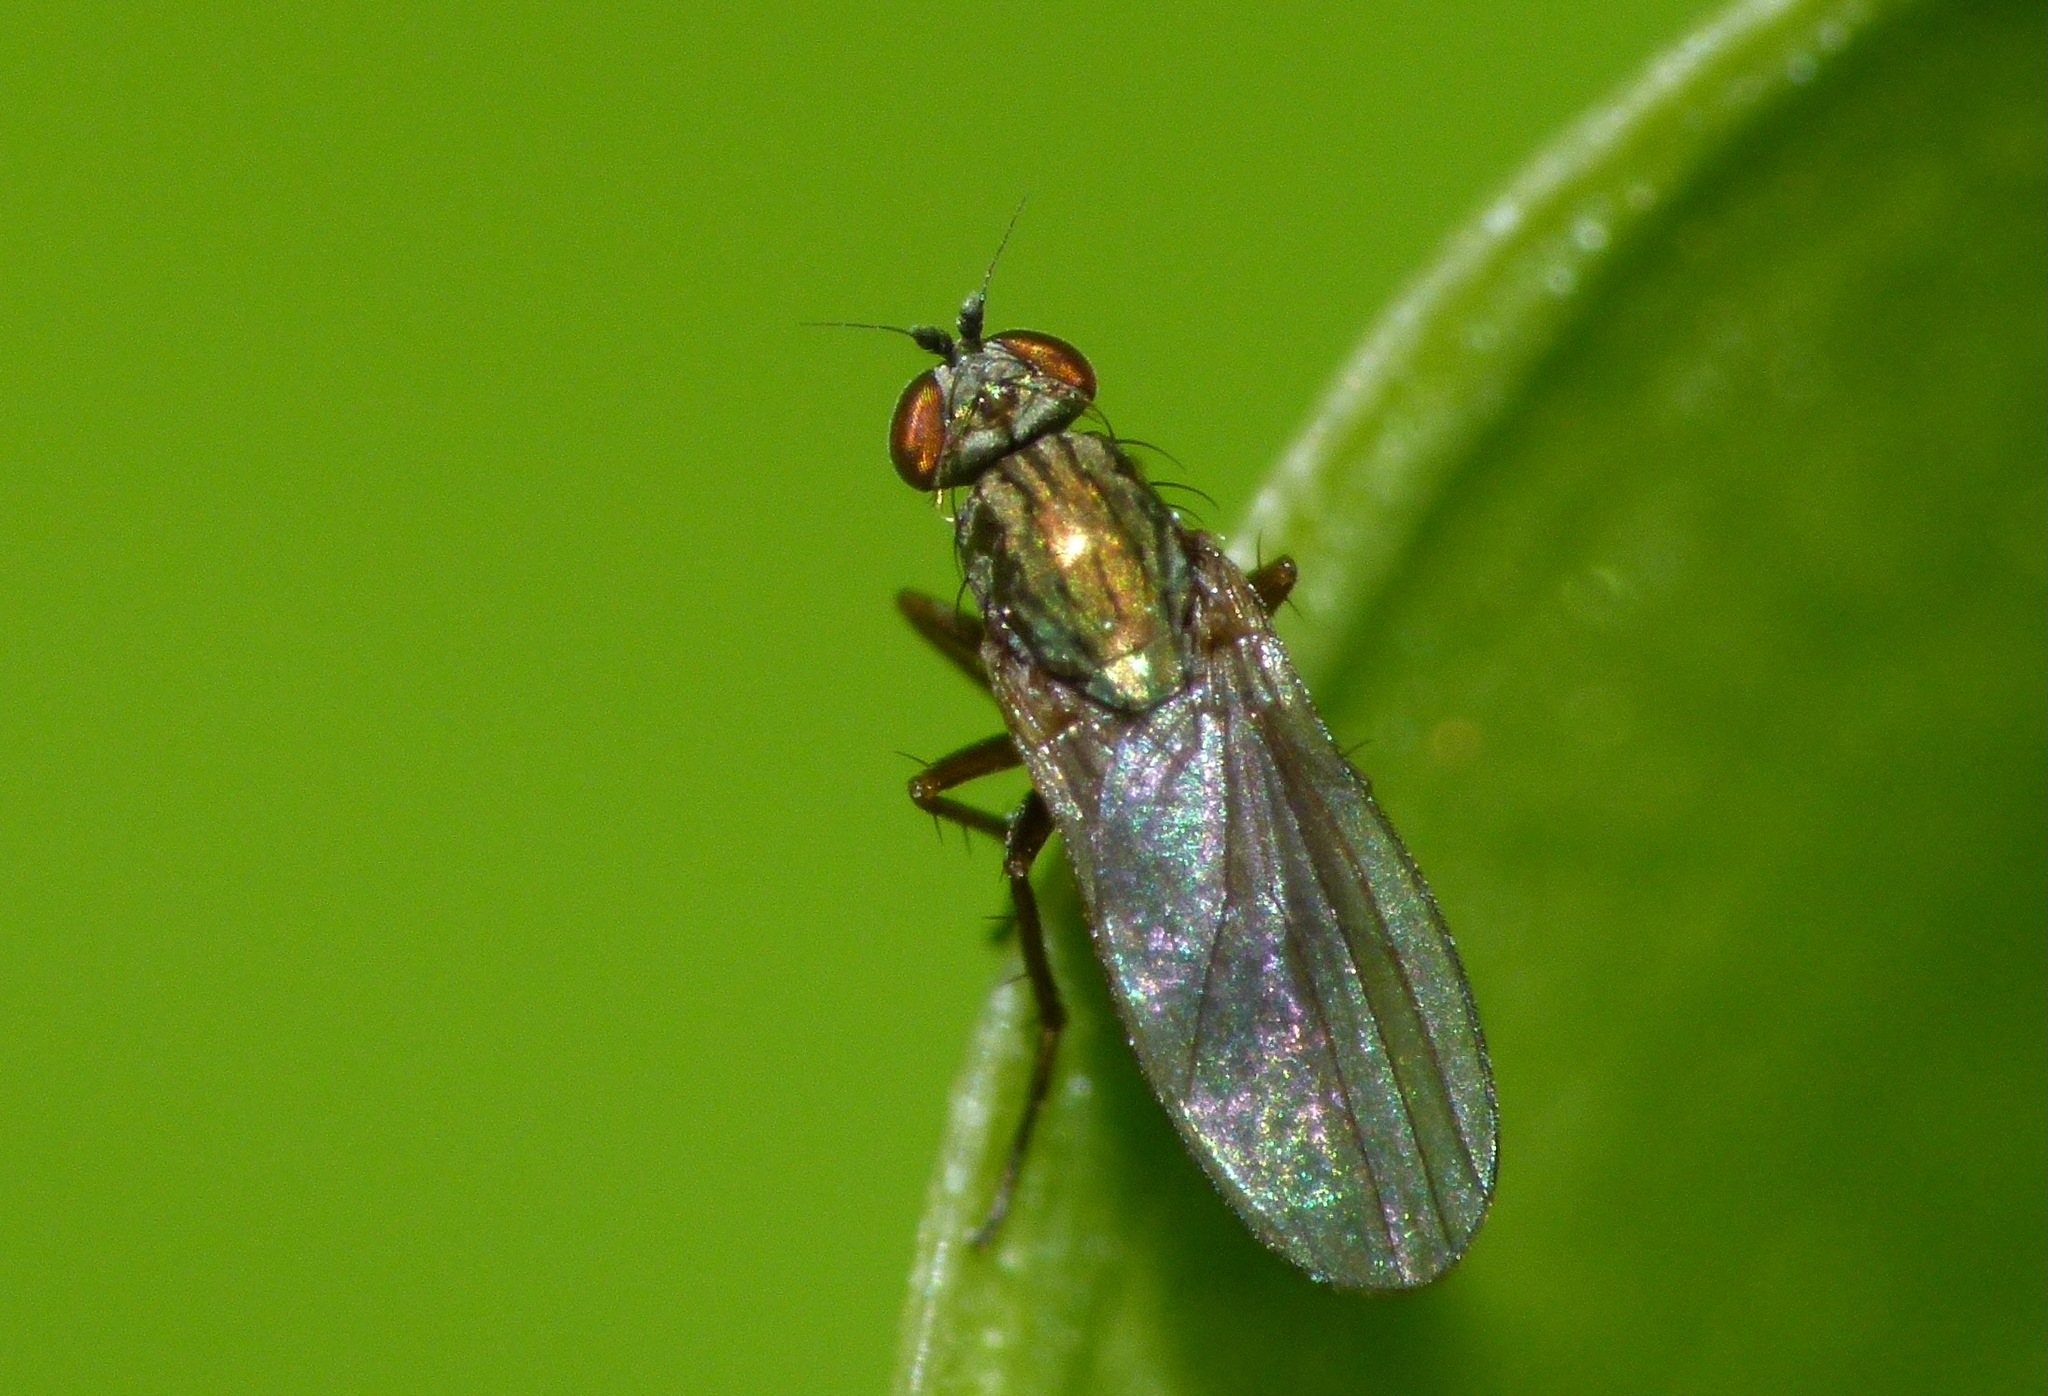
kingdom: Animalia
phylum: Arthropoda
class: Insecta
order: Diptera
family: Dolichopodidae
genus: Chrysotimus
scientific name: Chrysotimus scutatus
